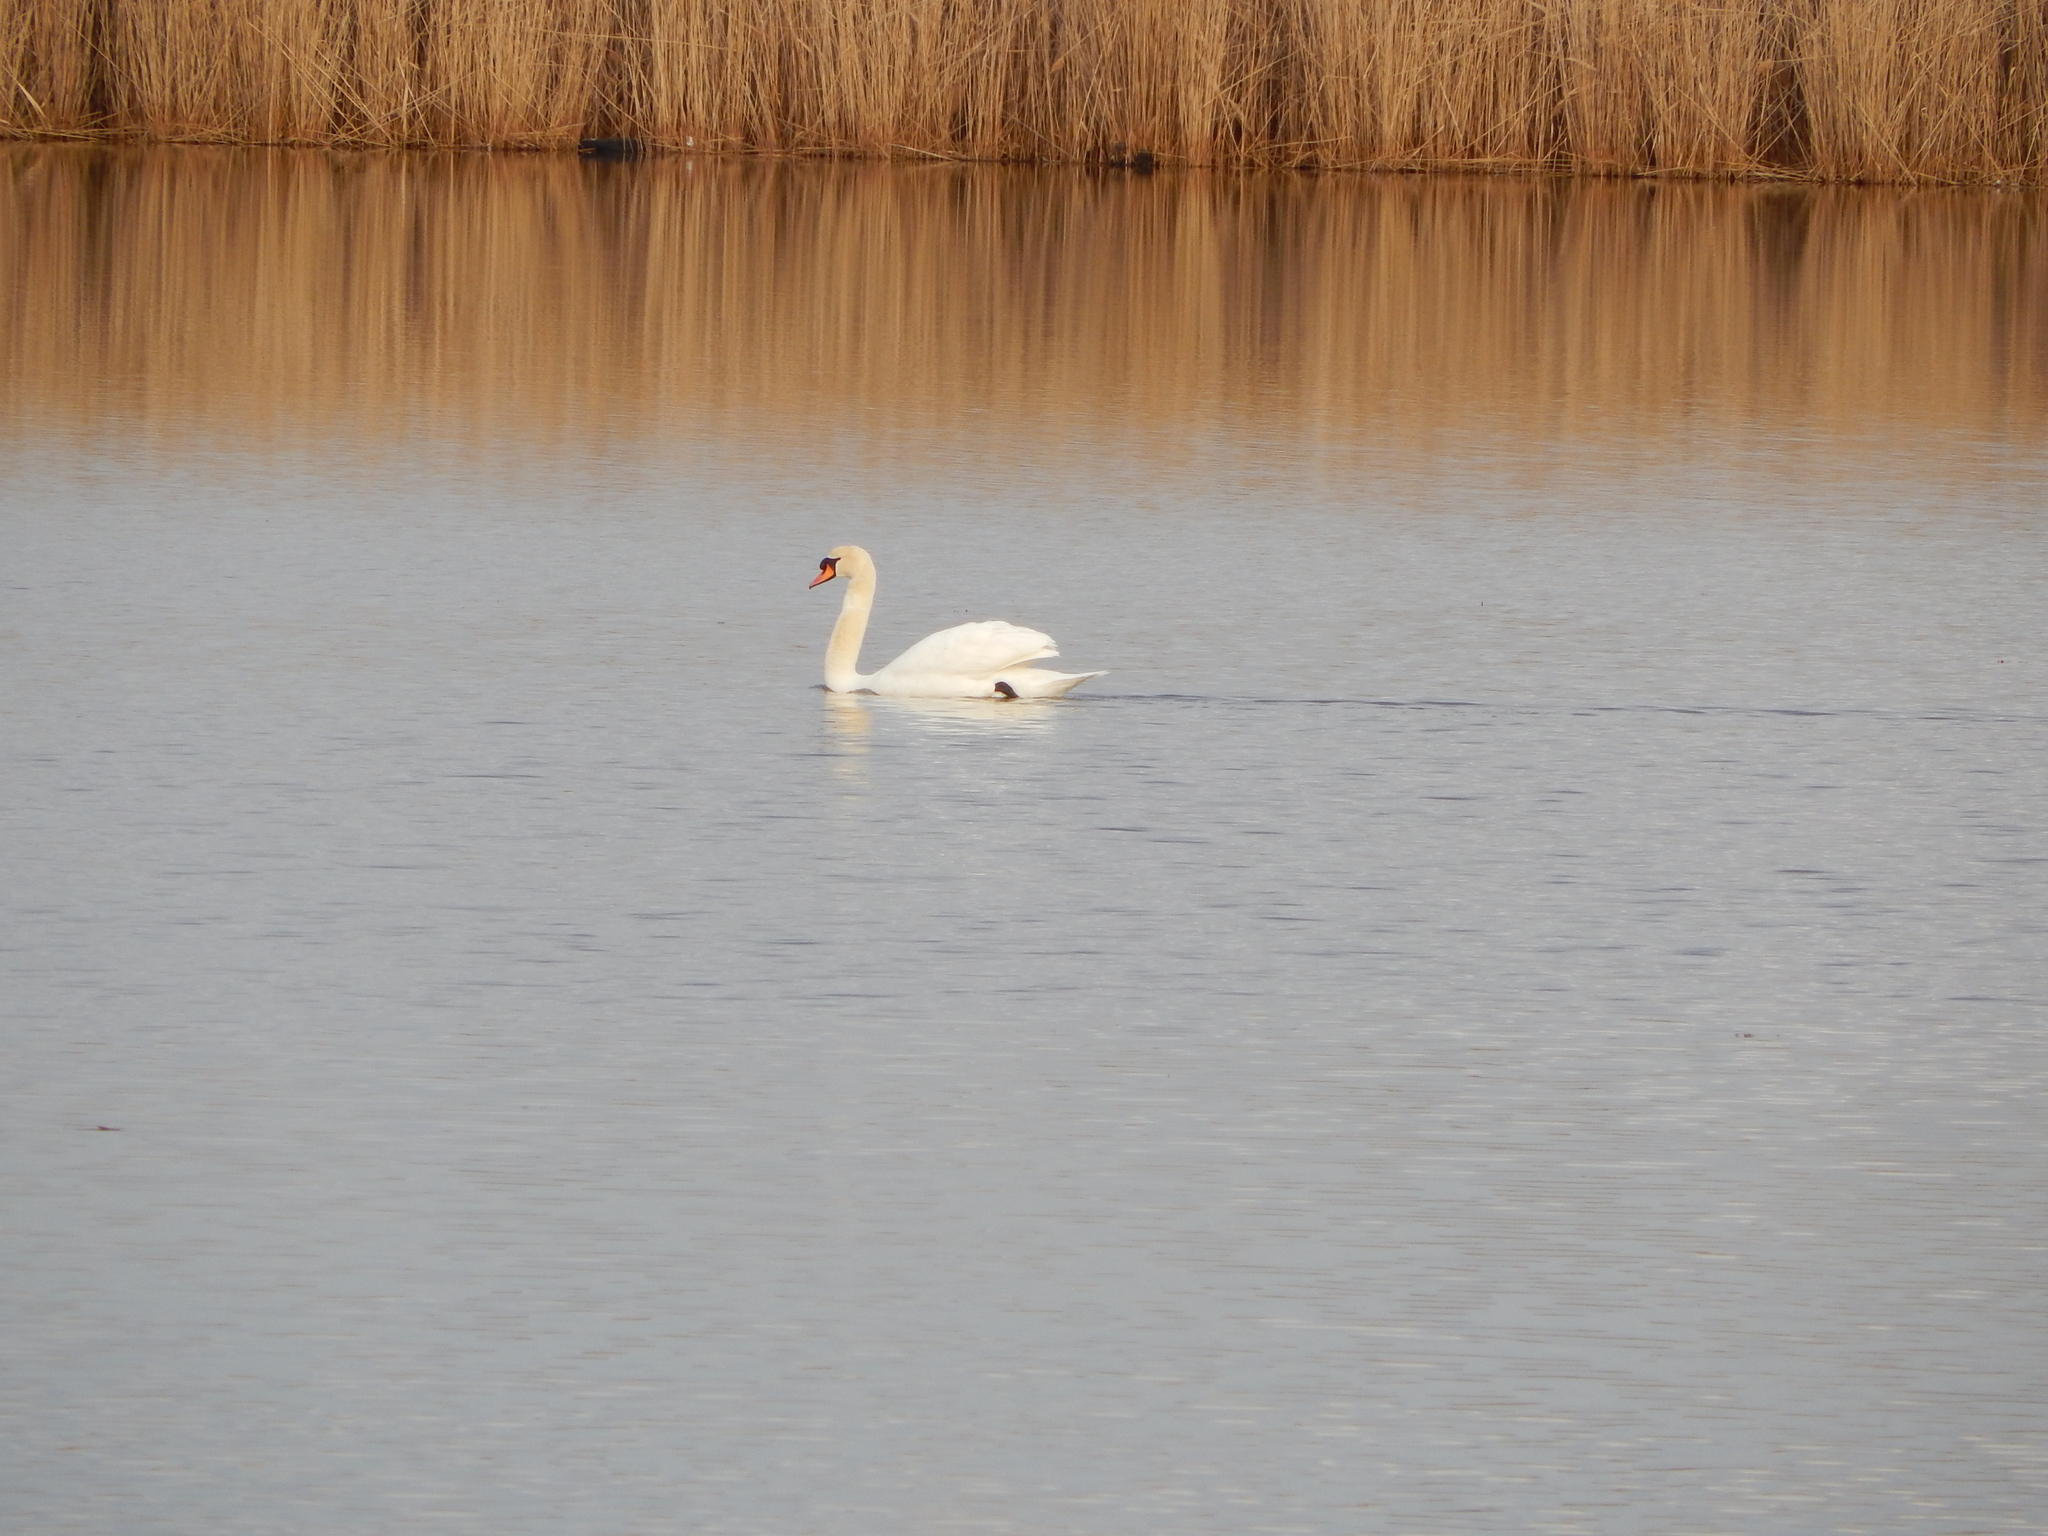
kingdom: Animalia
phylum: Chordata
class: Aves
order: Anseriformes
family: Anatidae
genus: Cygnus
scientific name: Cygnus olor
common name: Mute swan
